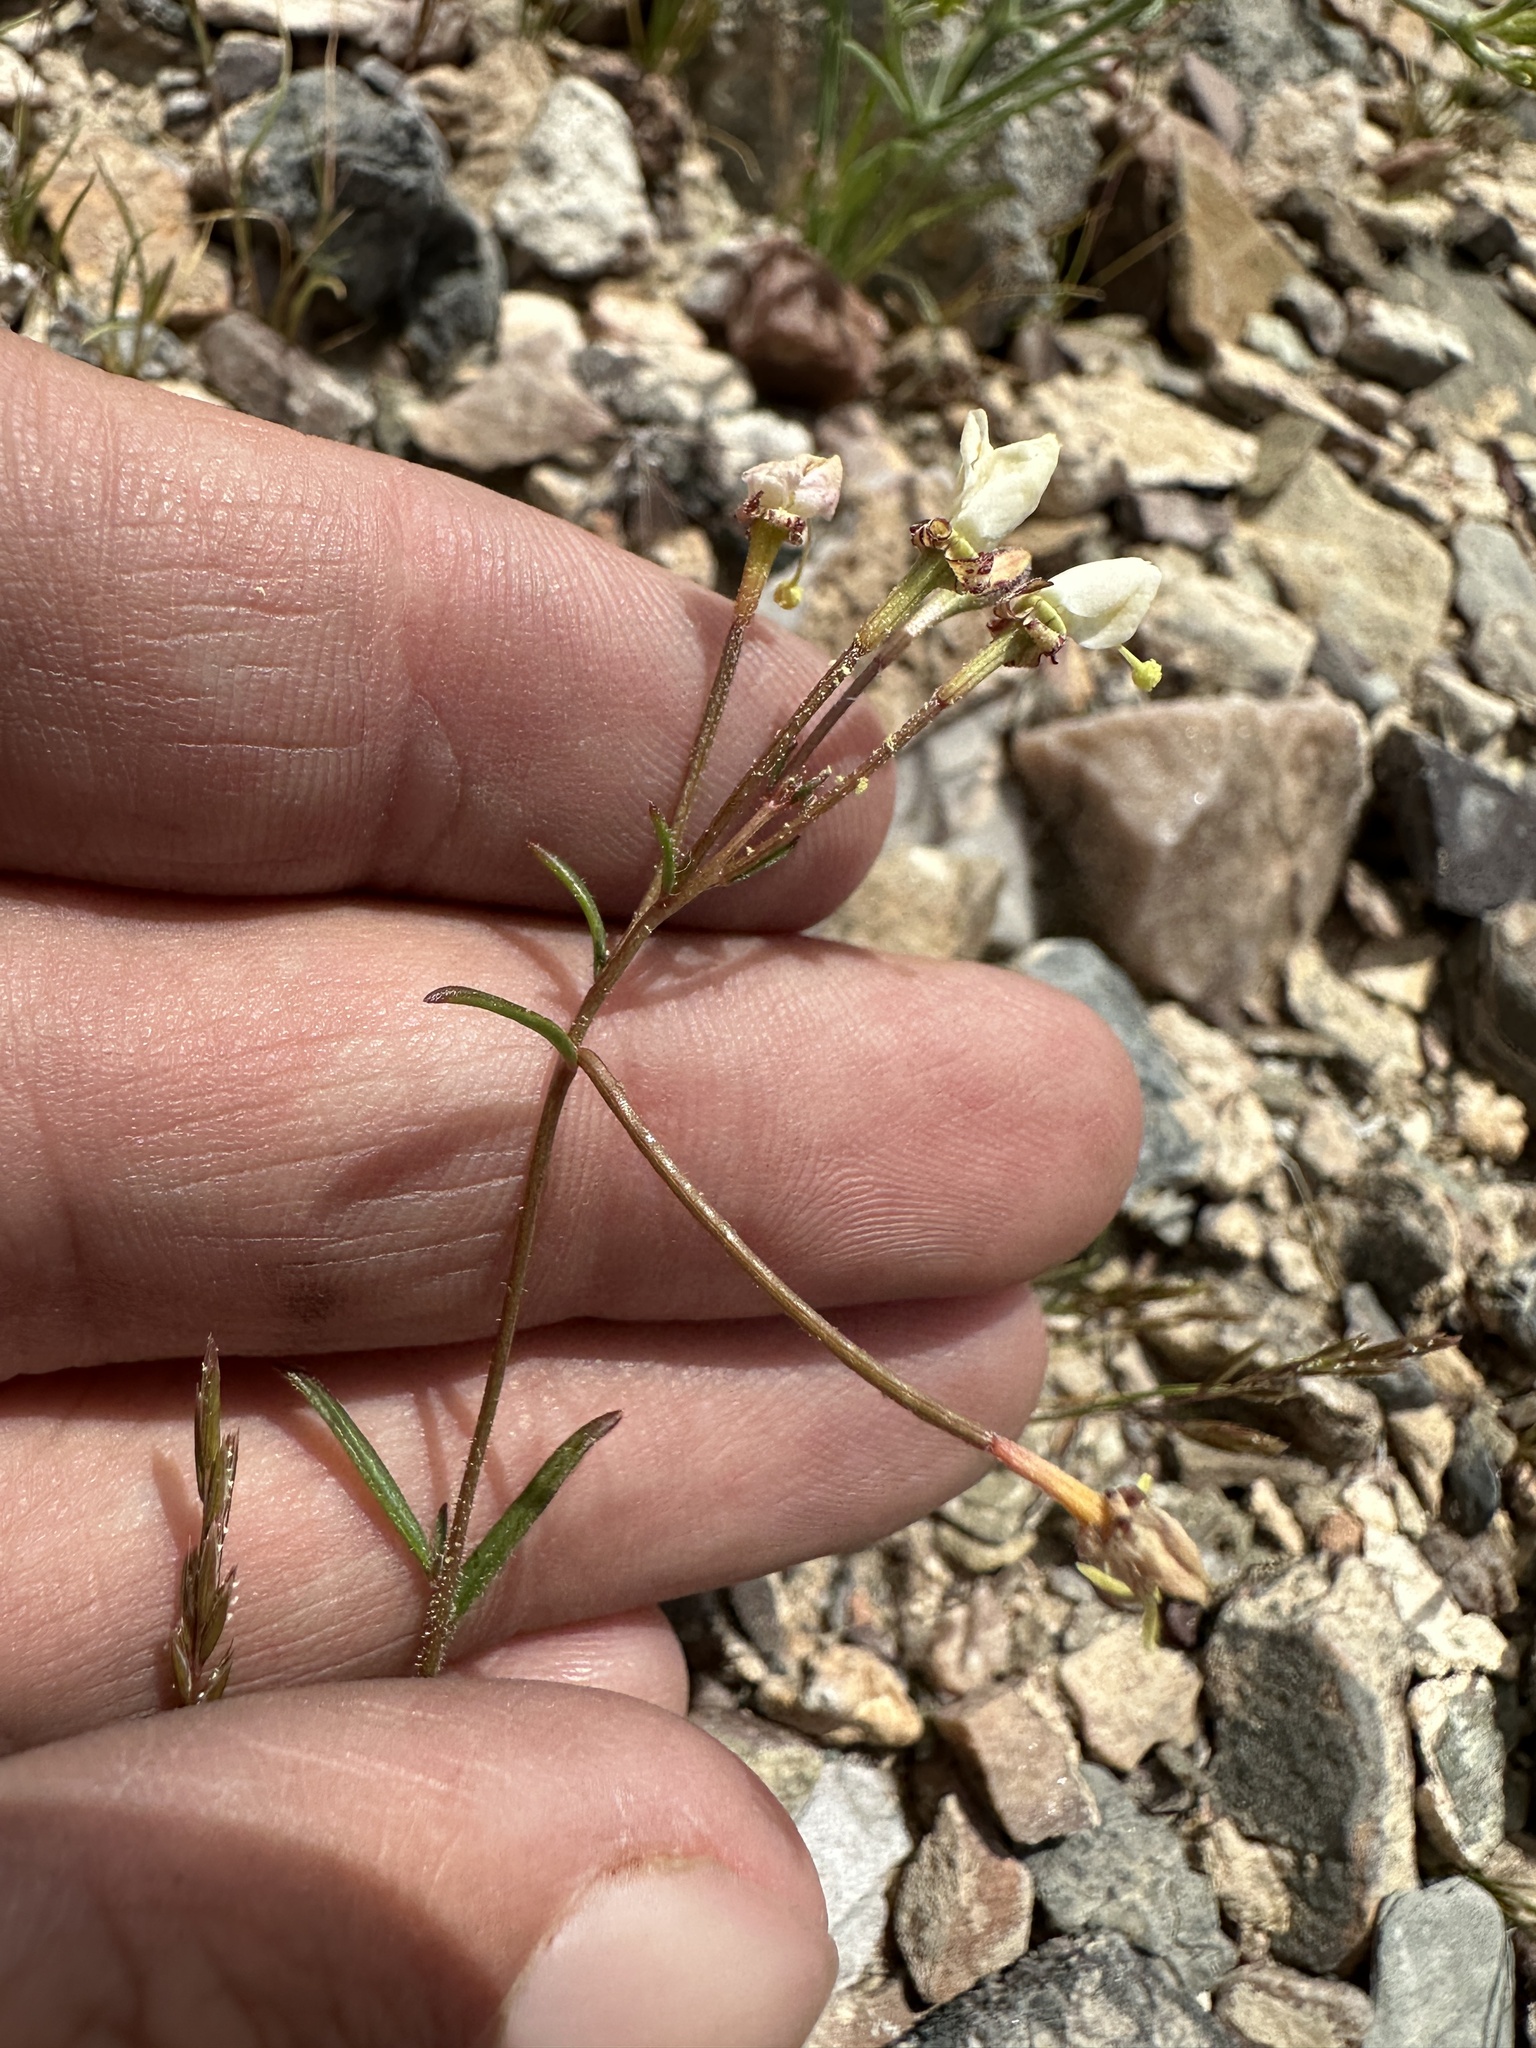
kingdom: Plantae
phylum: Tracheophyta
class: Magnoliopsida
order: Myrtales
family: Onagraceae
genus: Eremothera
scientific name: Eremothera refracta
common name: Narrowleaf suncup
